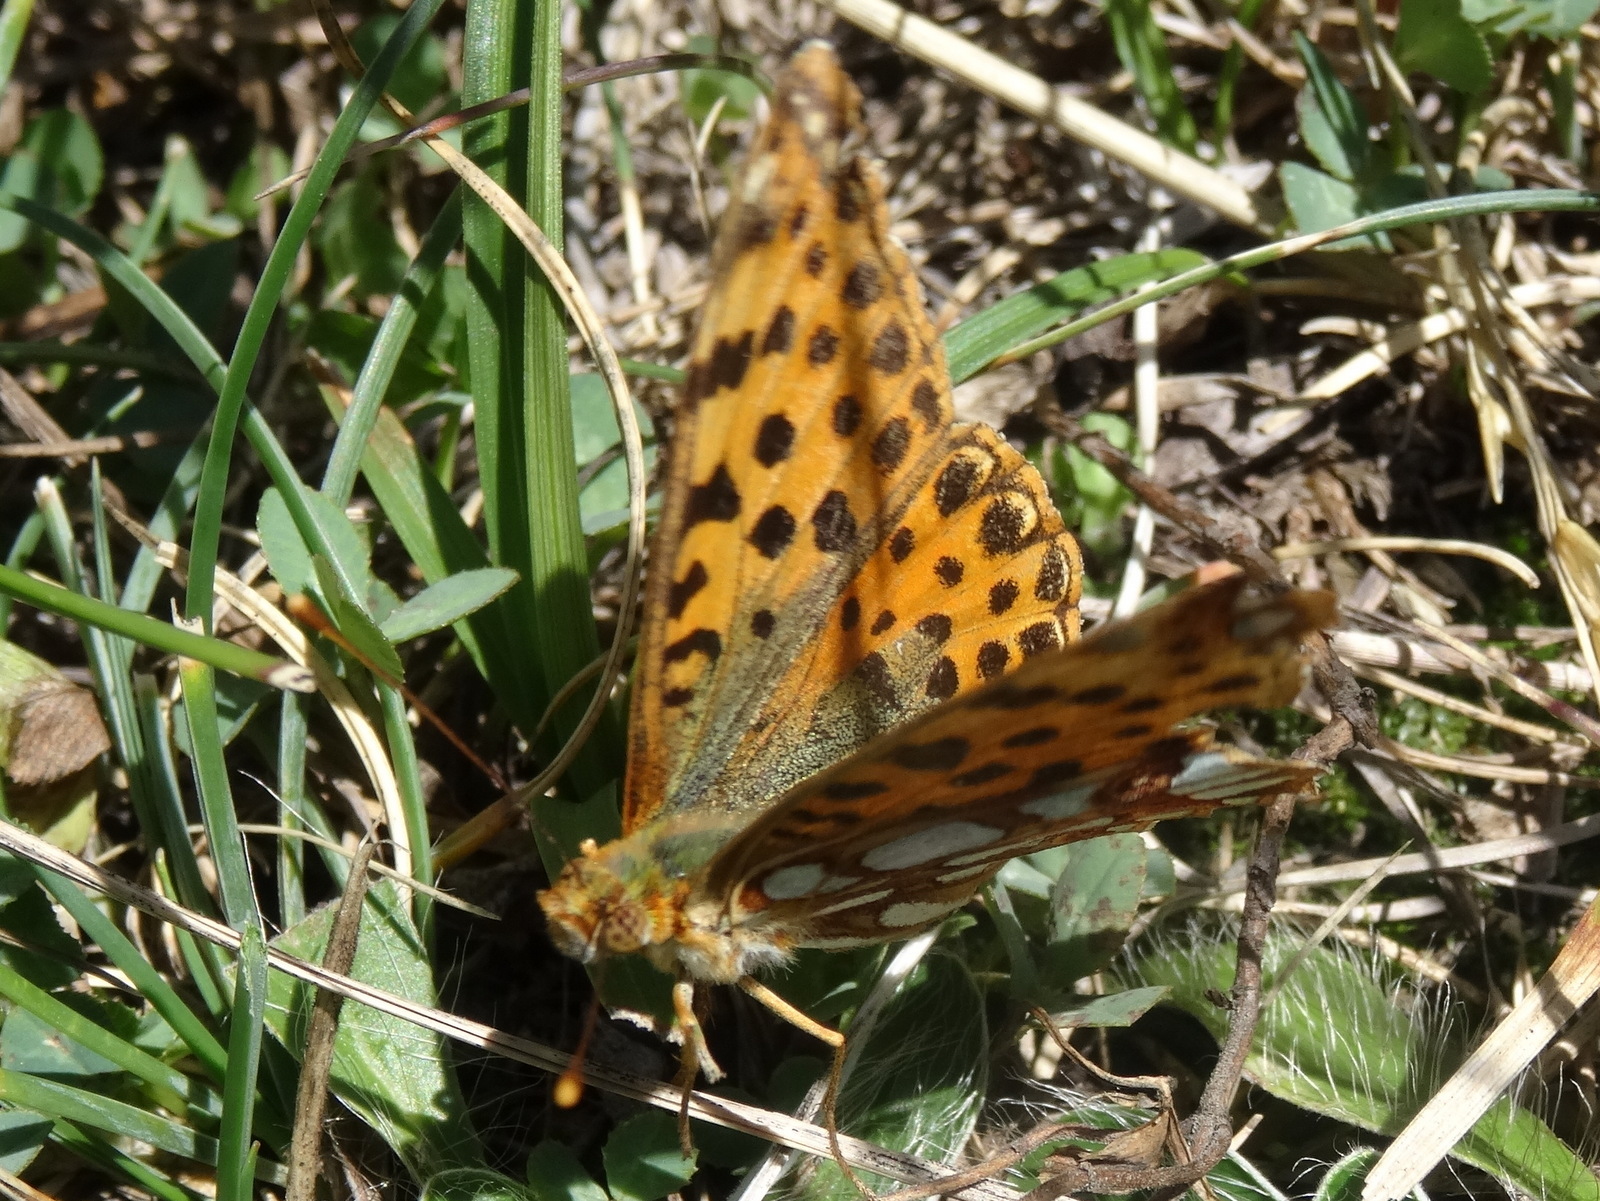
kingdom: Animalia
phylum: Arthropoda
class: Insecta
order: Lepidoptera
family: Nymphalidae
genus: Issoria
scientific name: Issoria lathonia
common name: Queen of spain fritillary
